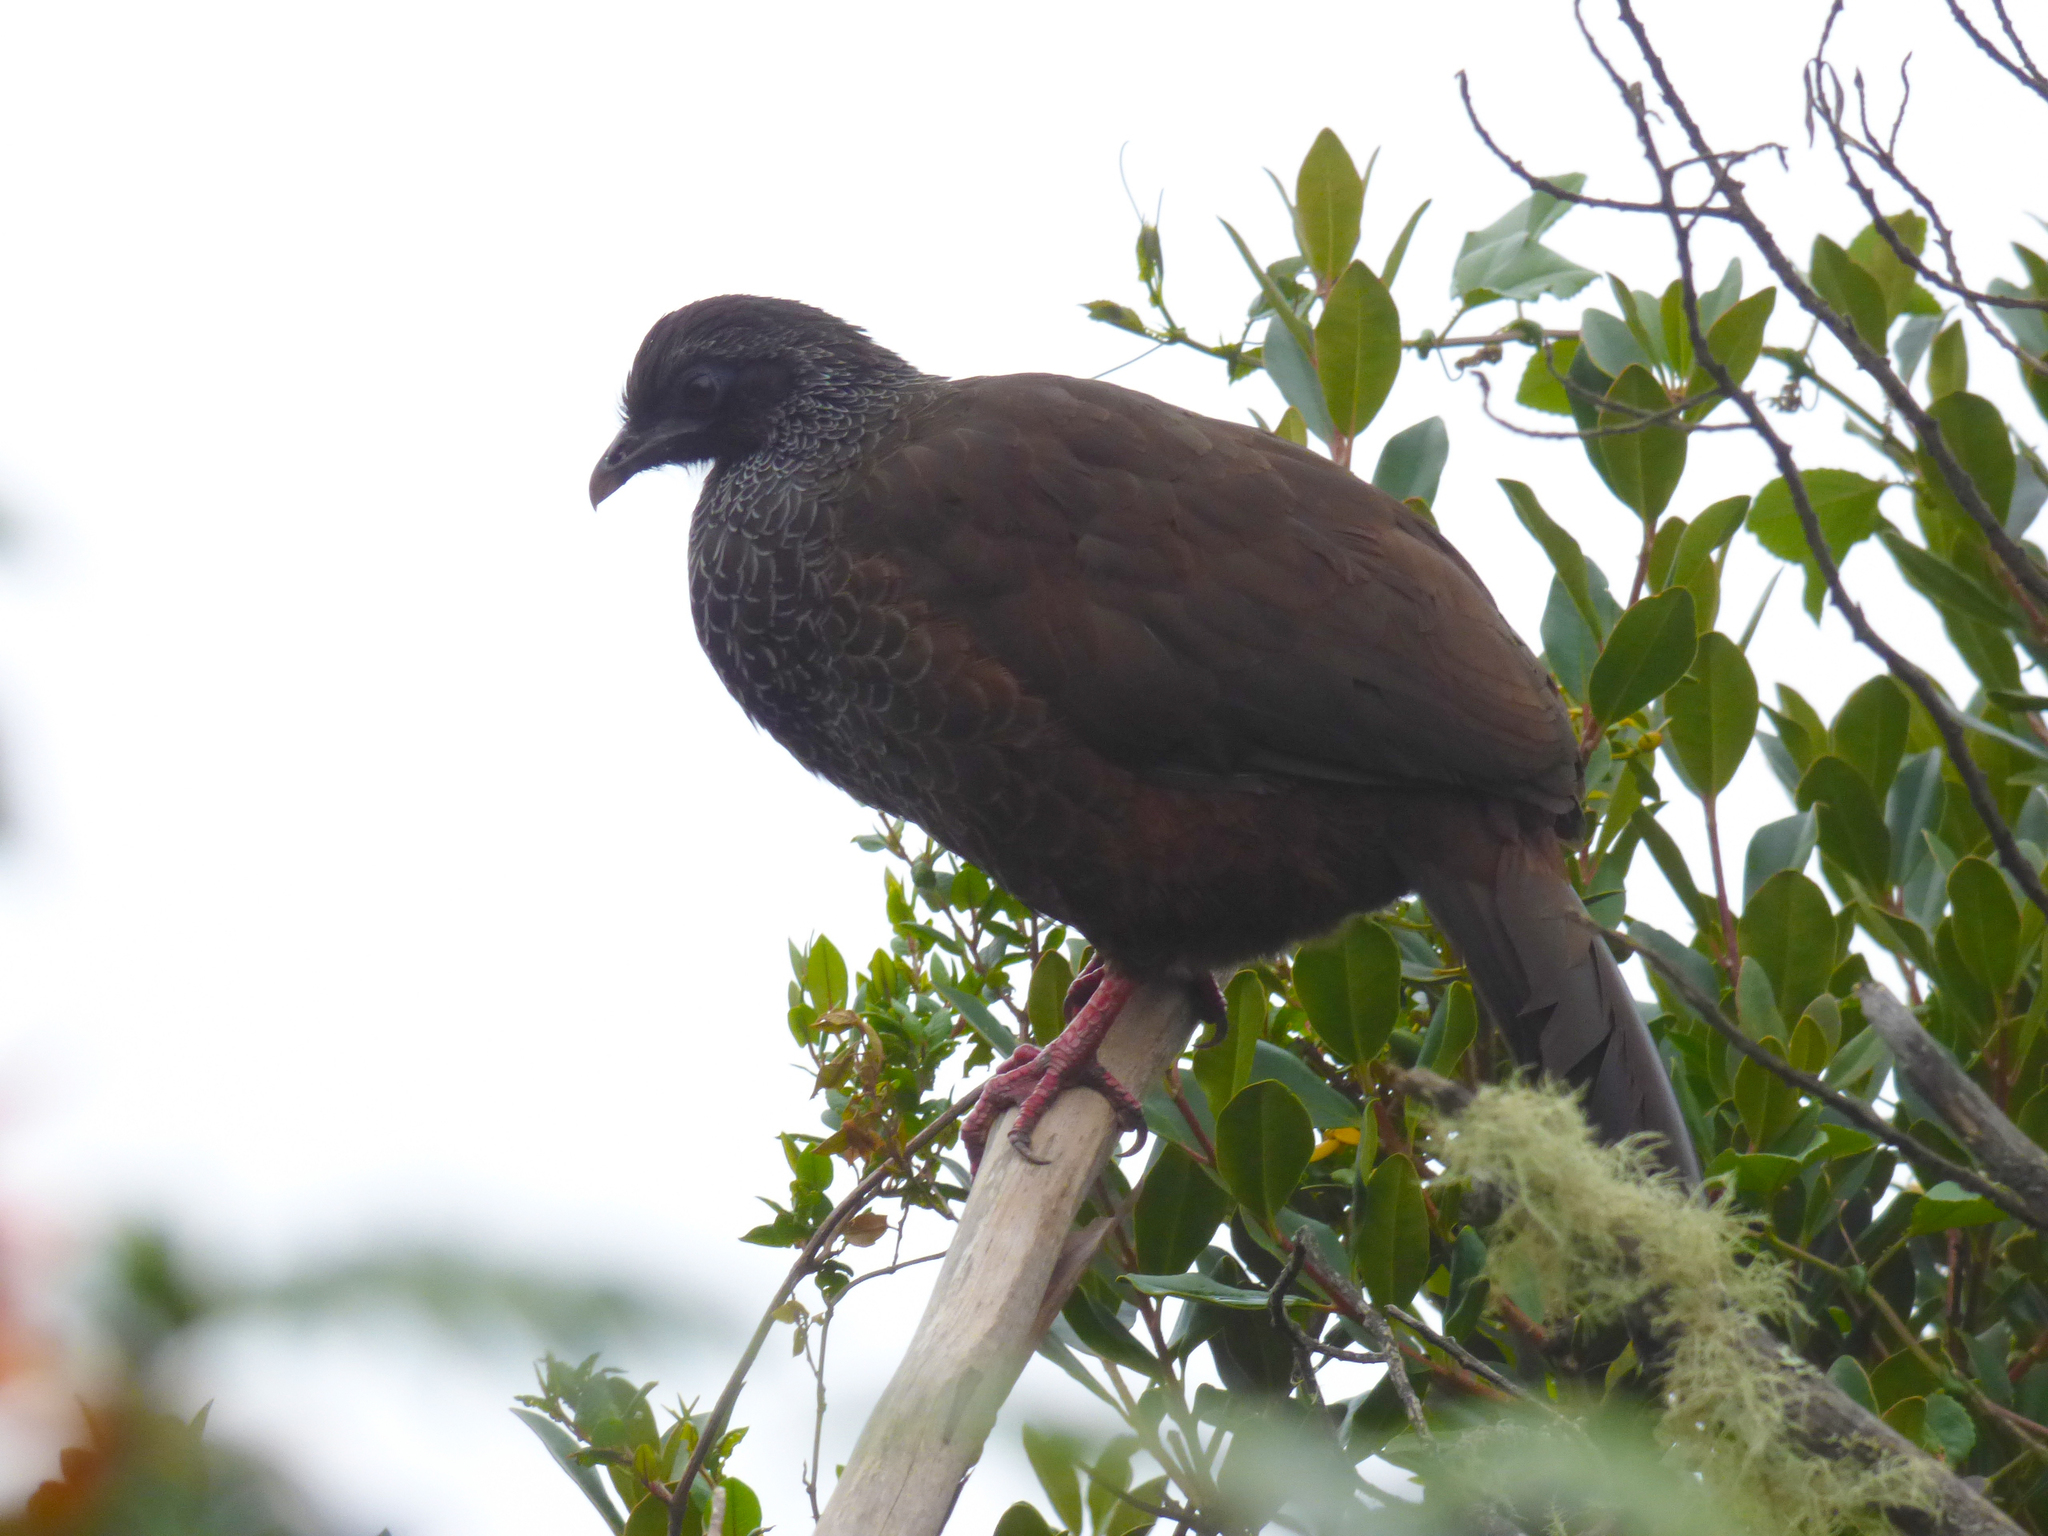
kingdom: Animalia
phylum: Chordata
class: Aves
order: Galliformes
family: Cracidae
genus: Penelope
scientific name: Penelope montagnii
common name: Andean guan
